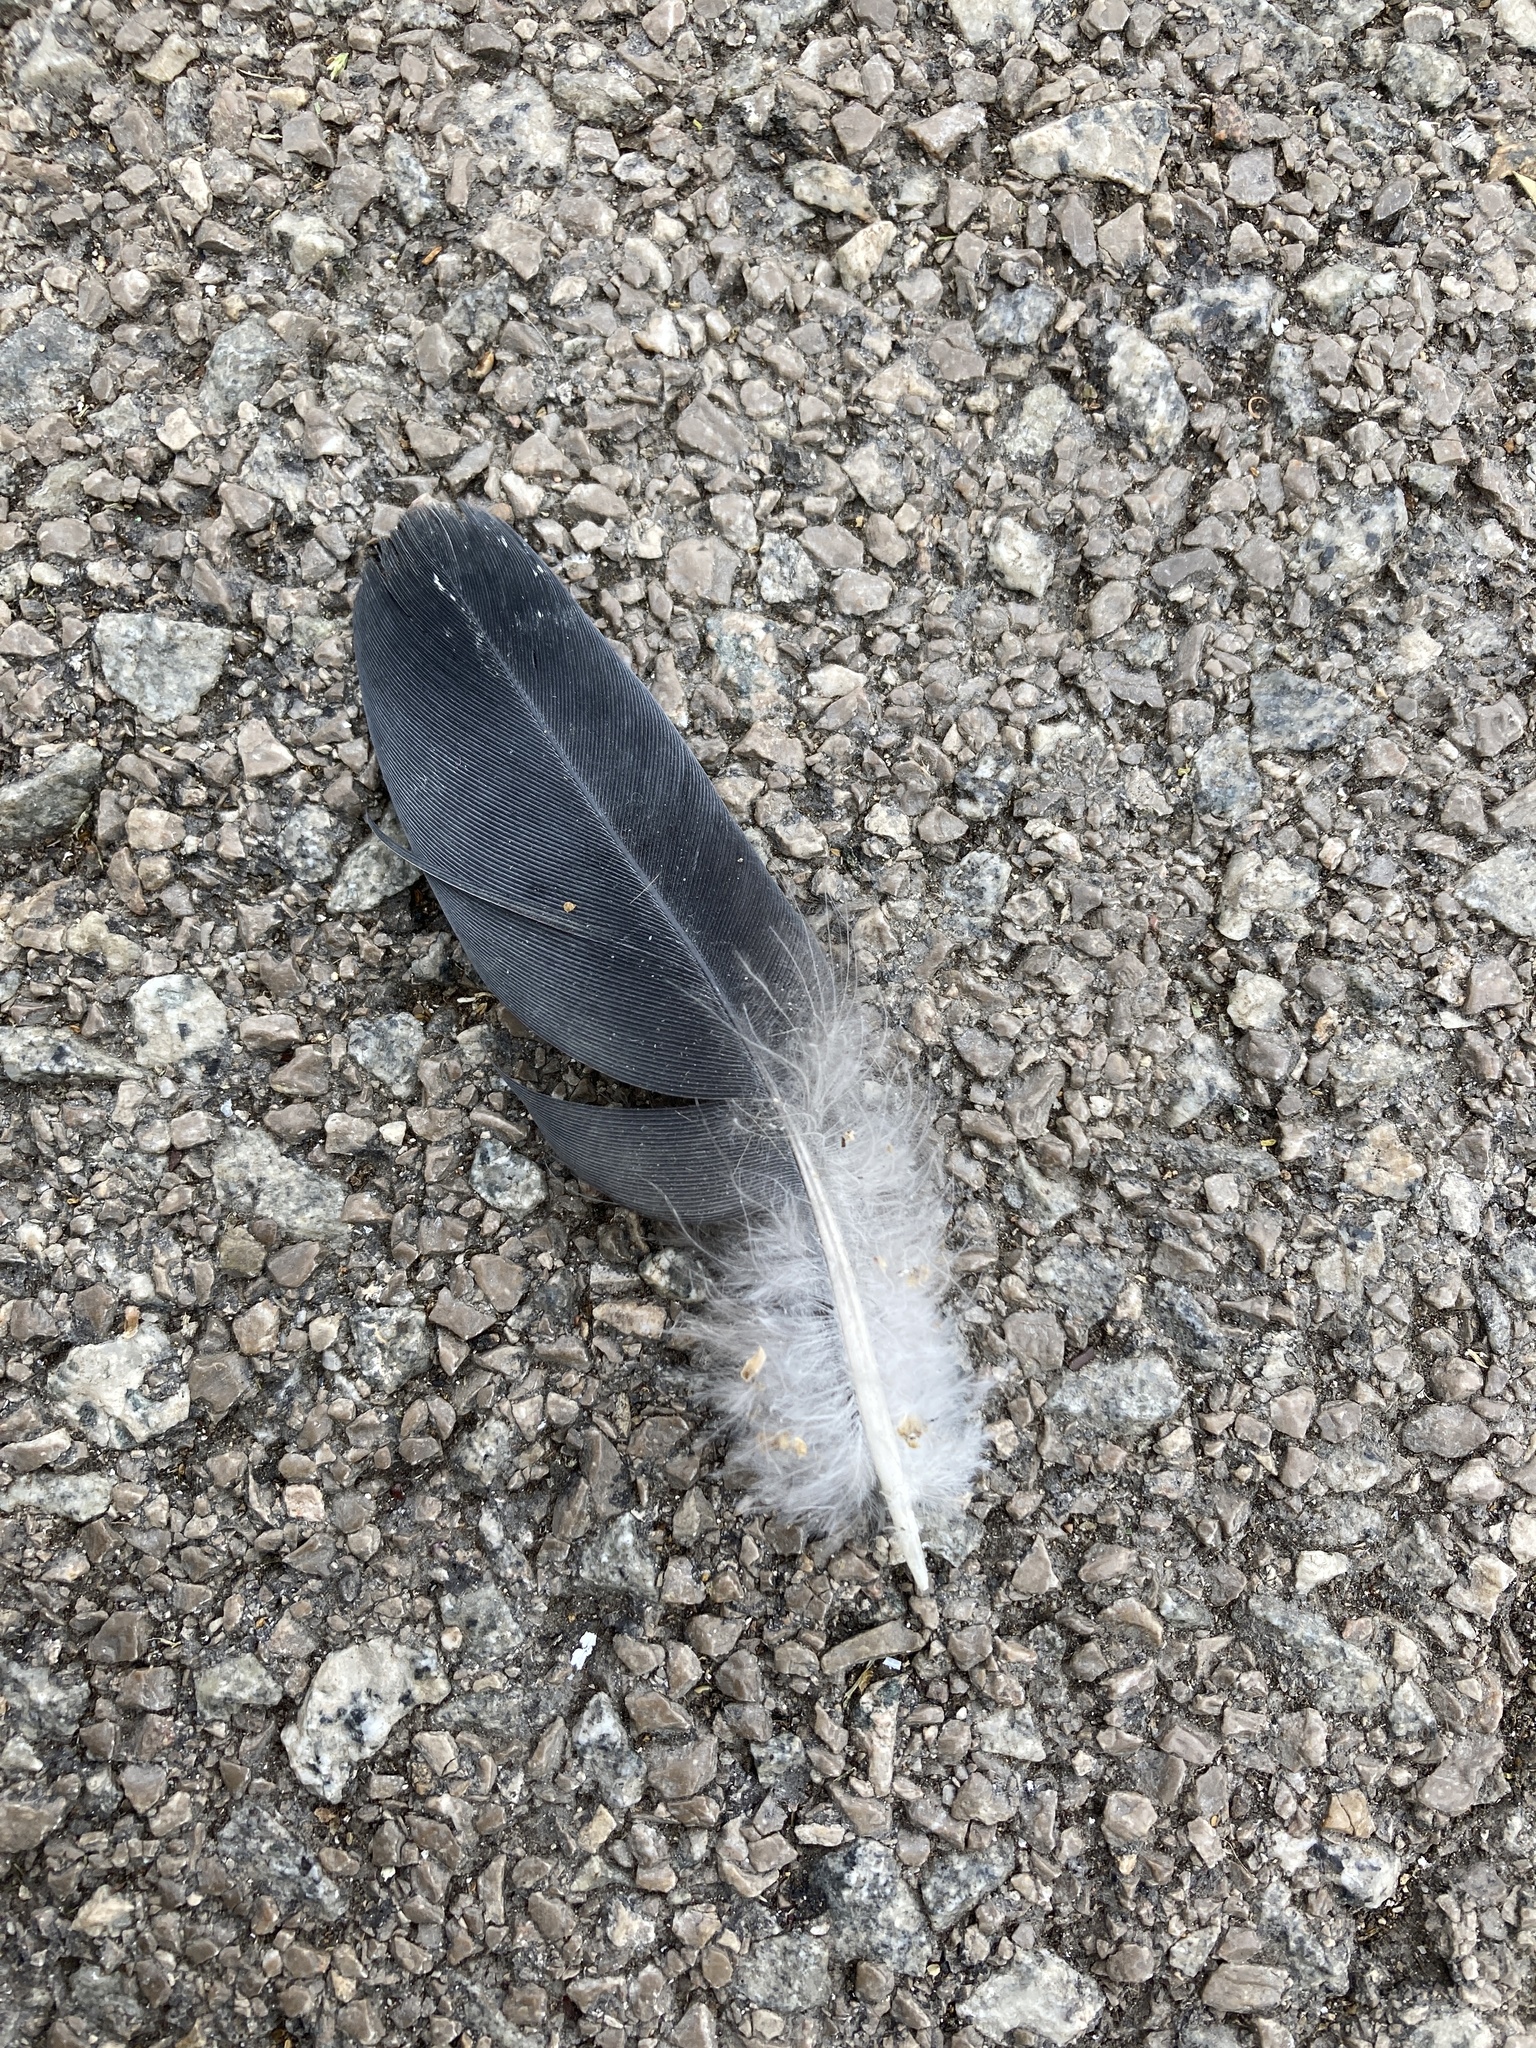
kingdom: Animalia
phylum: Chordata
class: Aves
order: Columbiformes
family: Columbidae
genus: Columba
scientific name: Columba livia
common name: Rock pigeon
